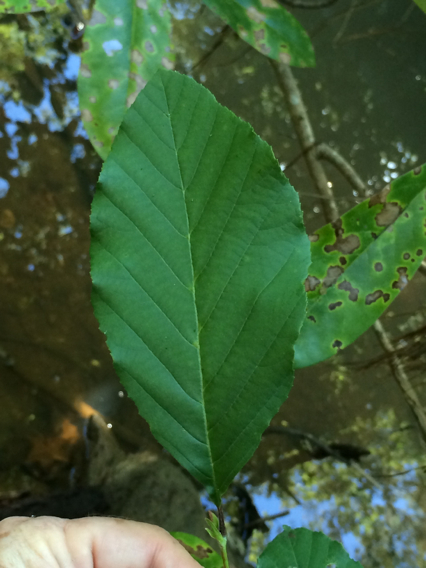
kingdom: Plantae
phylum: Tracheophyta
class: Magnoliopsida
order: Fagales
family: Betulaceae
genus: Alnus
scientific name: Alnus serrulata
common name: Hazel alder
